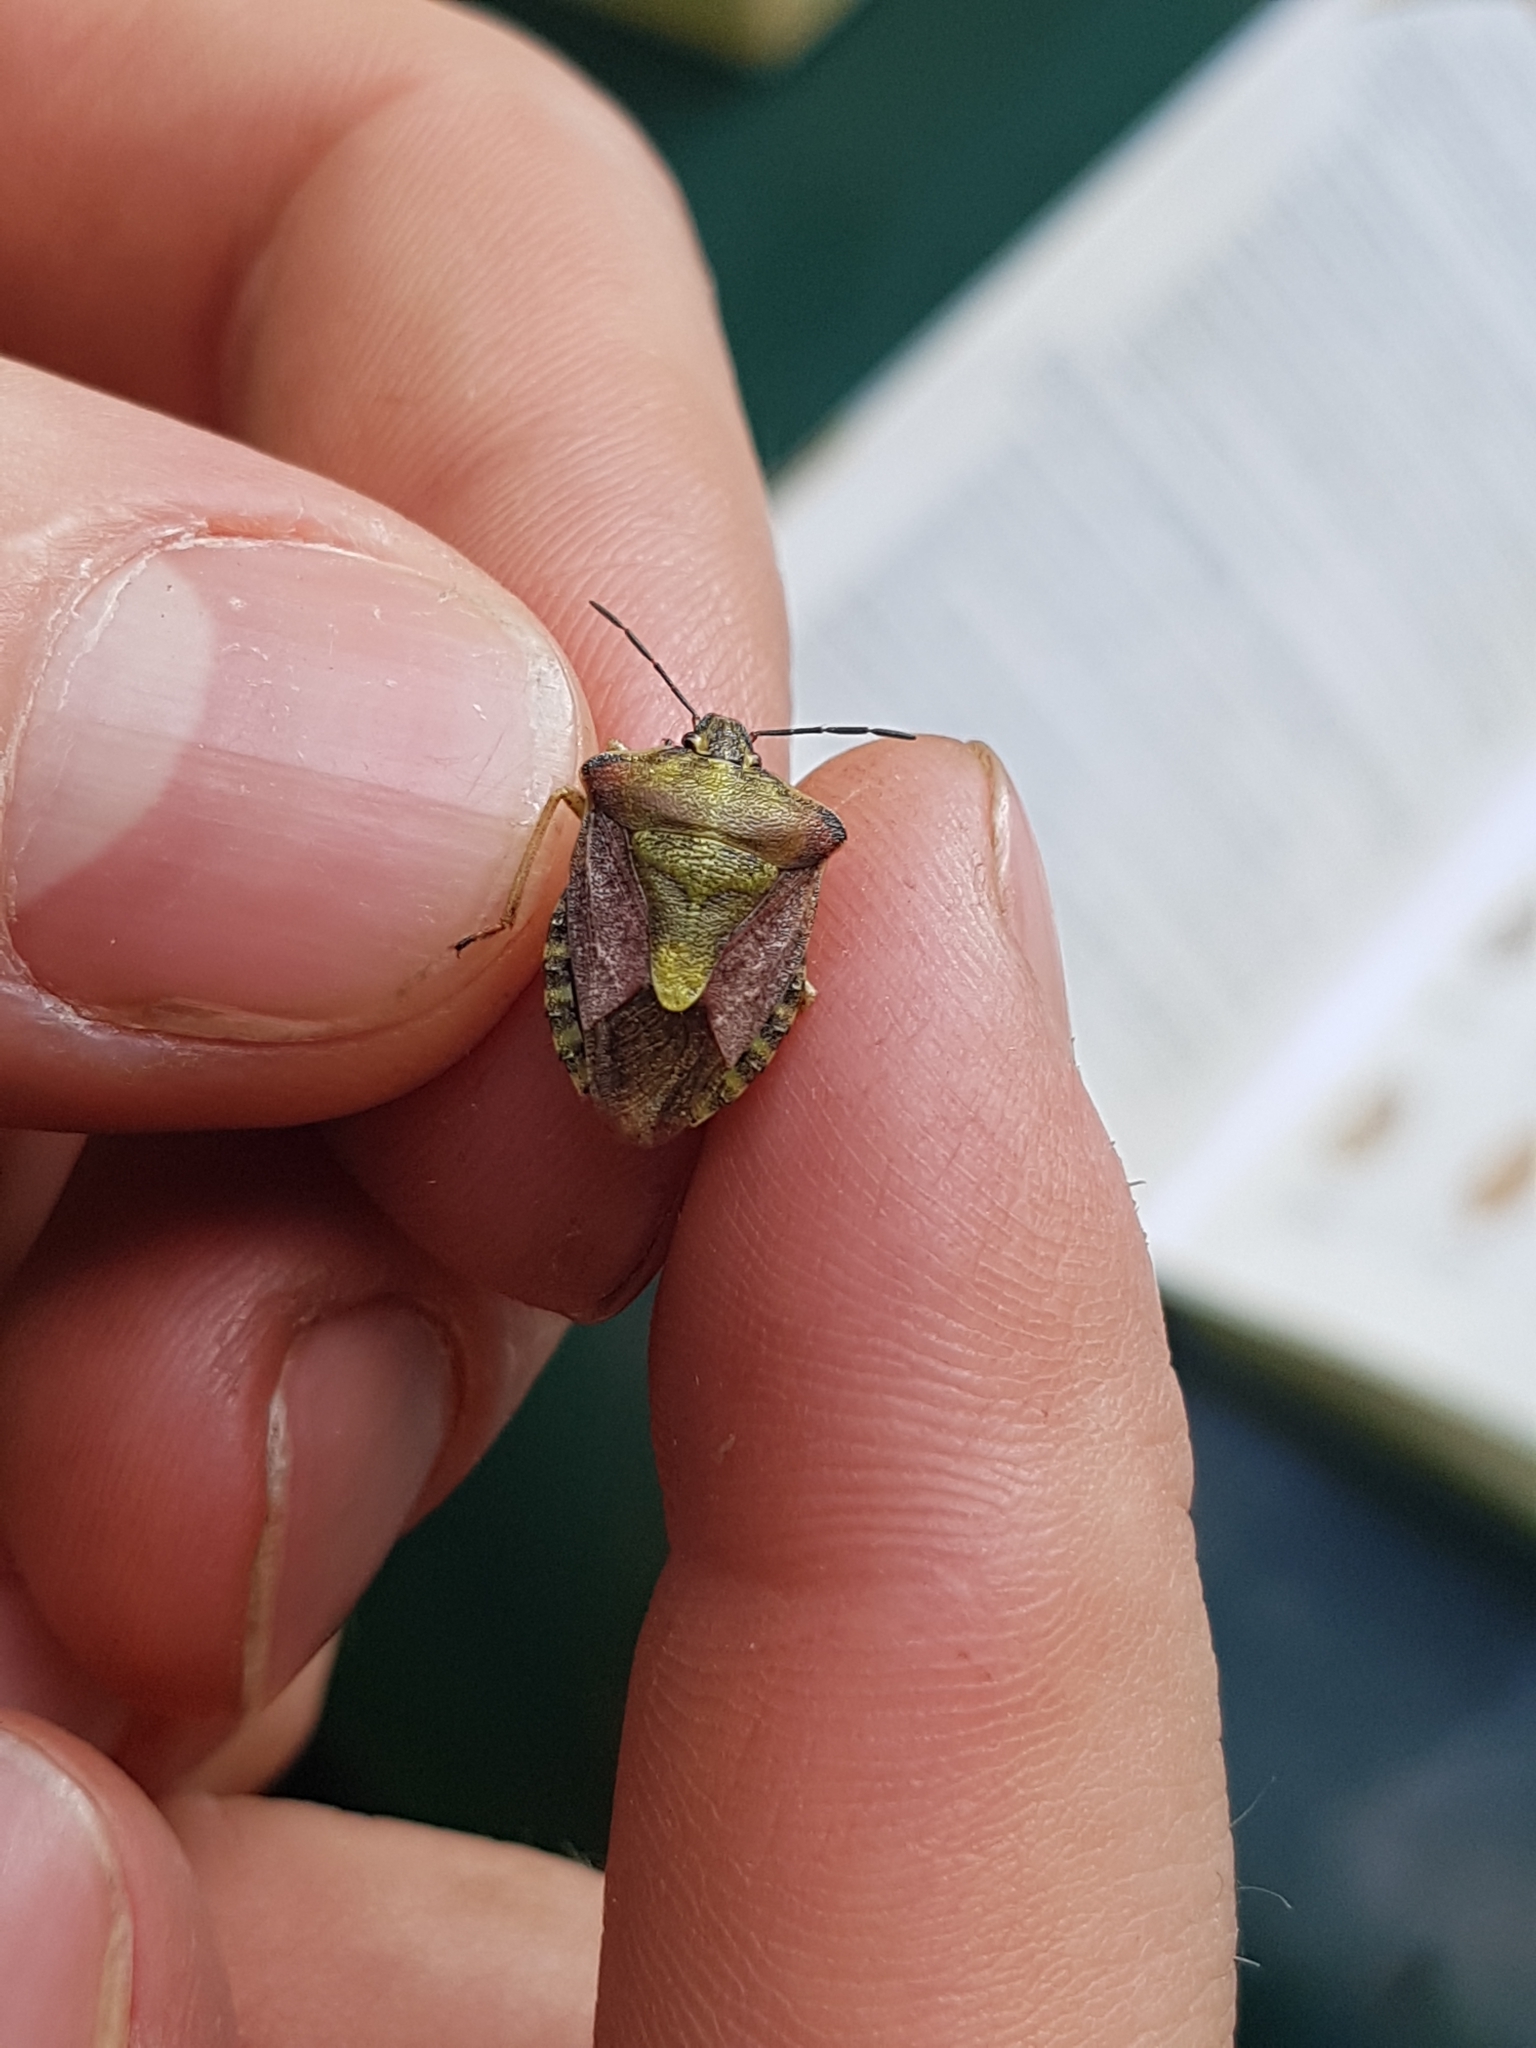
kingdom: Animalia
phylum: Arthropoda
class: Insecta
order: Hemiptera
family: Pentatomidae
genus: Carpocoris
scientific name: Carpocoris purpureipennis
